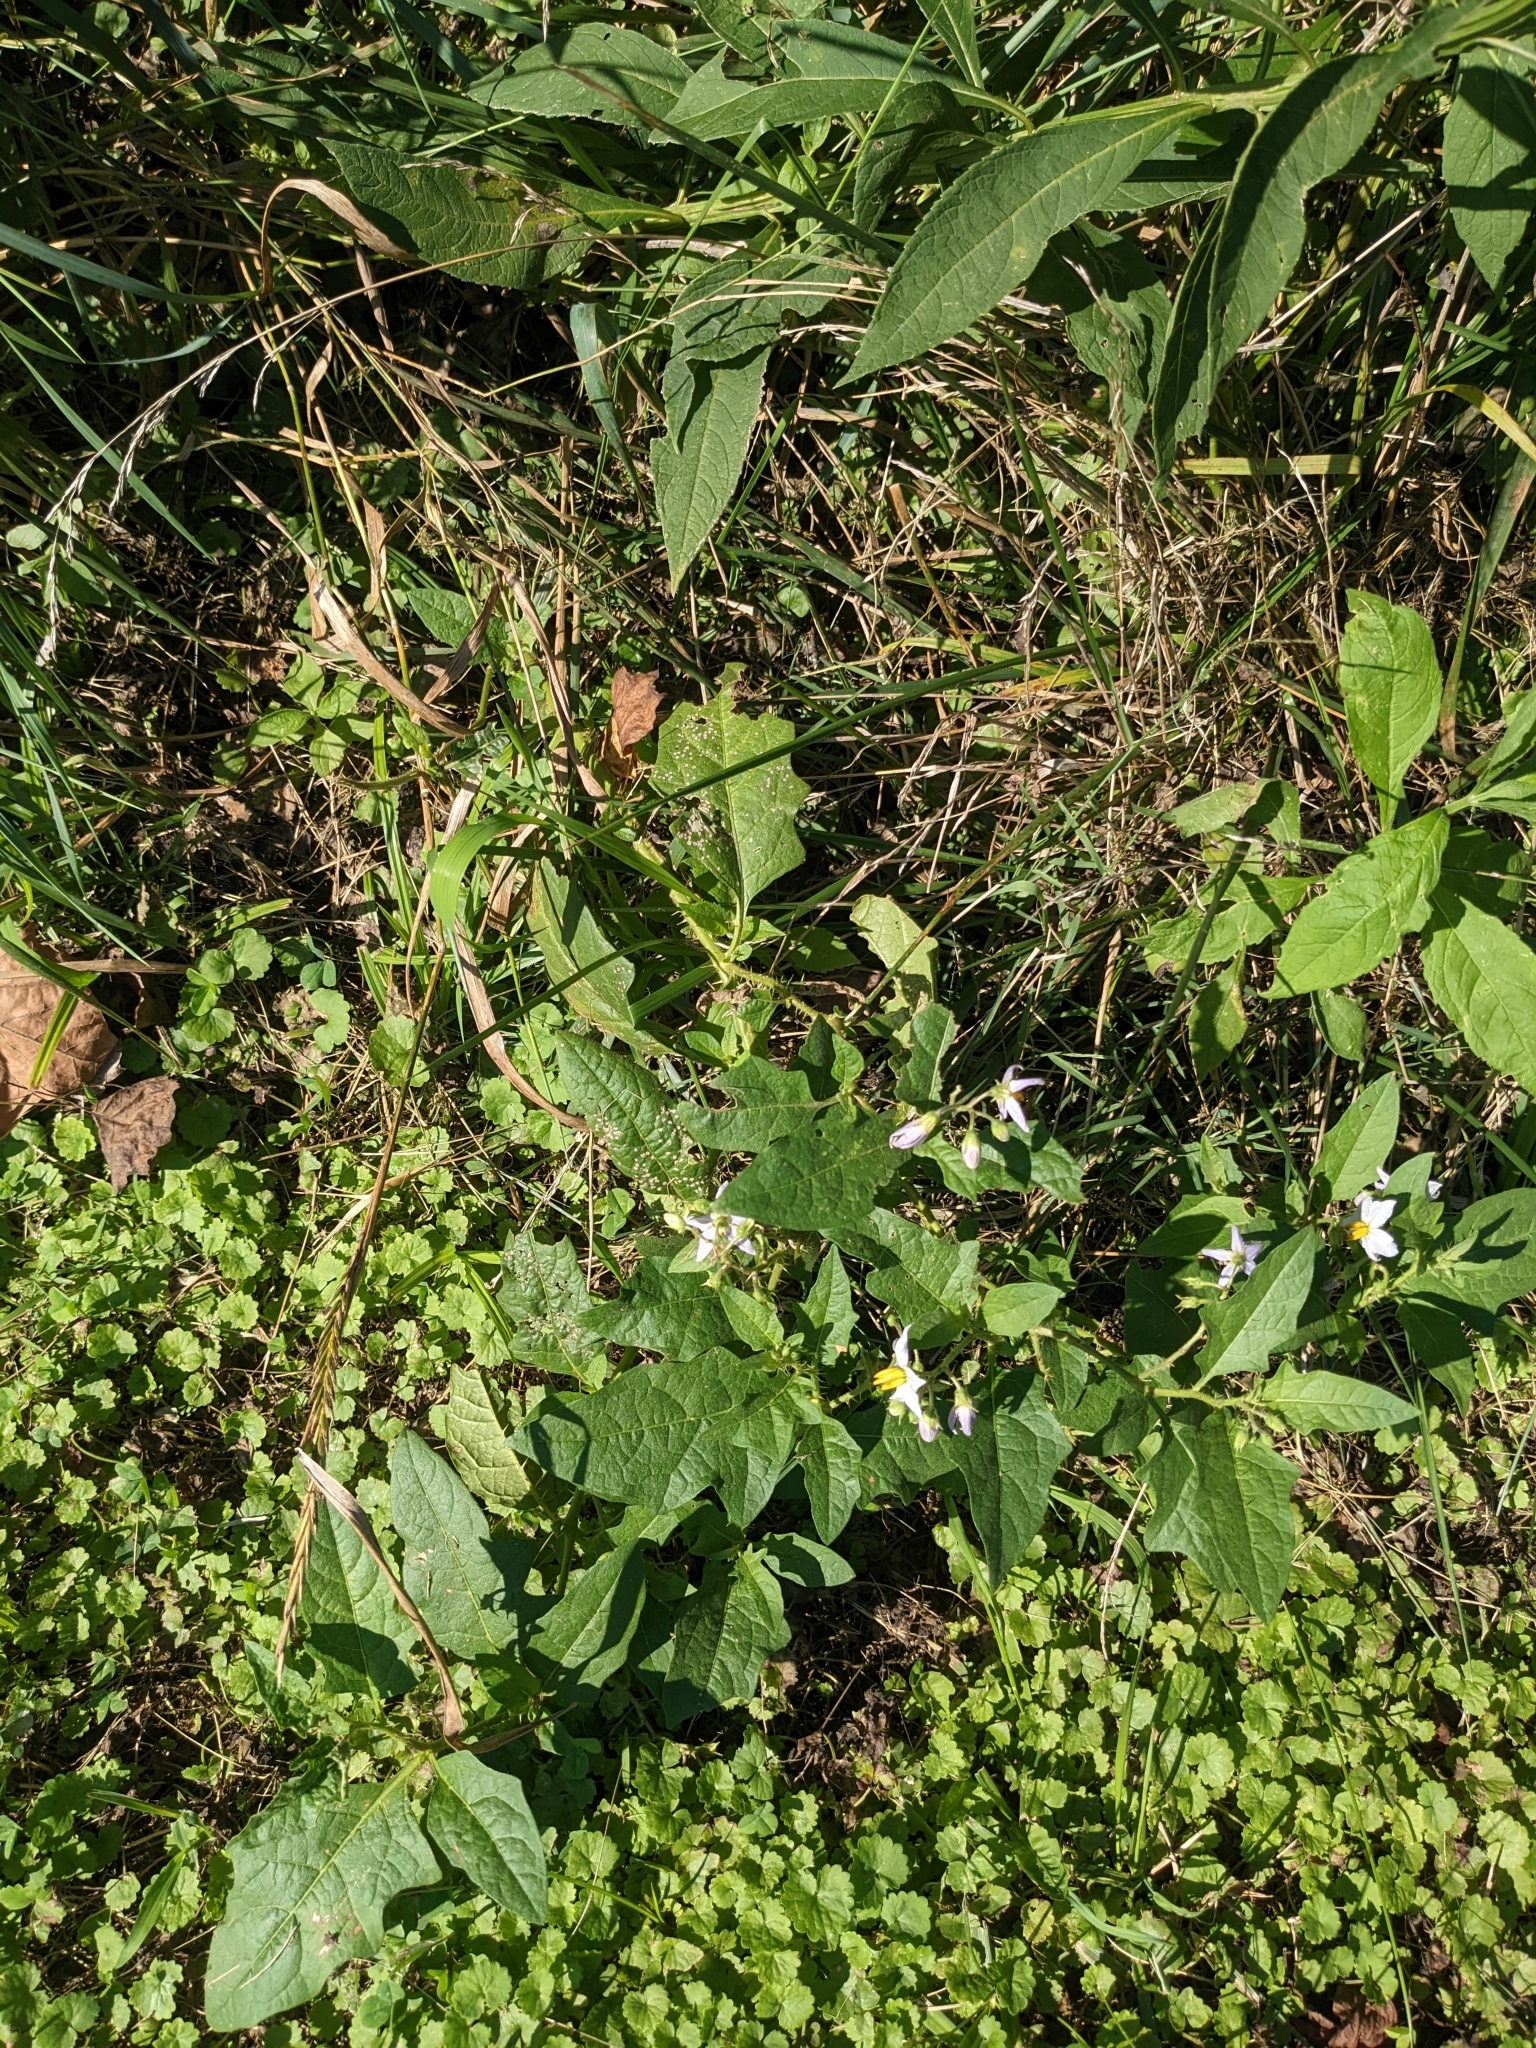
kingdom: Plantae
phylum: Tracheophyta
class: Magnoliopsida
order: Solanales
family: Solanaceae
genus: Solanum
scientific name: Solanum carolinense
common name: Horse-nettle
